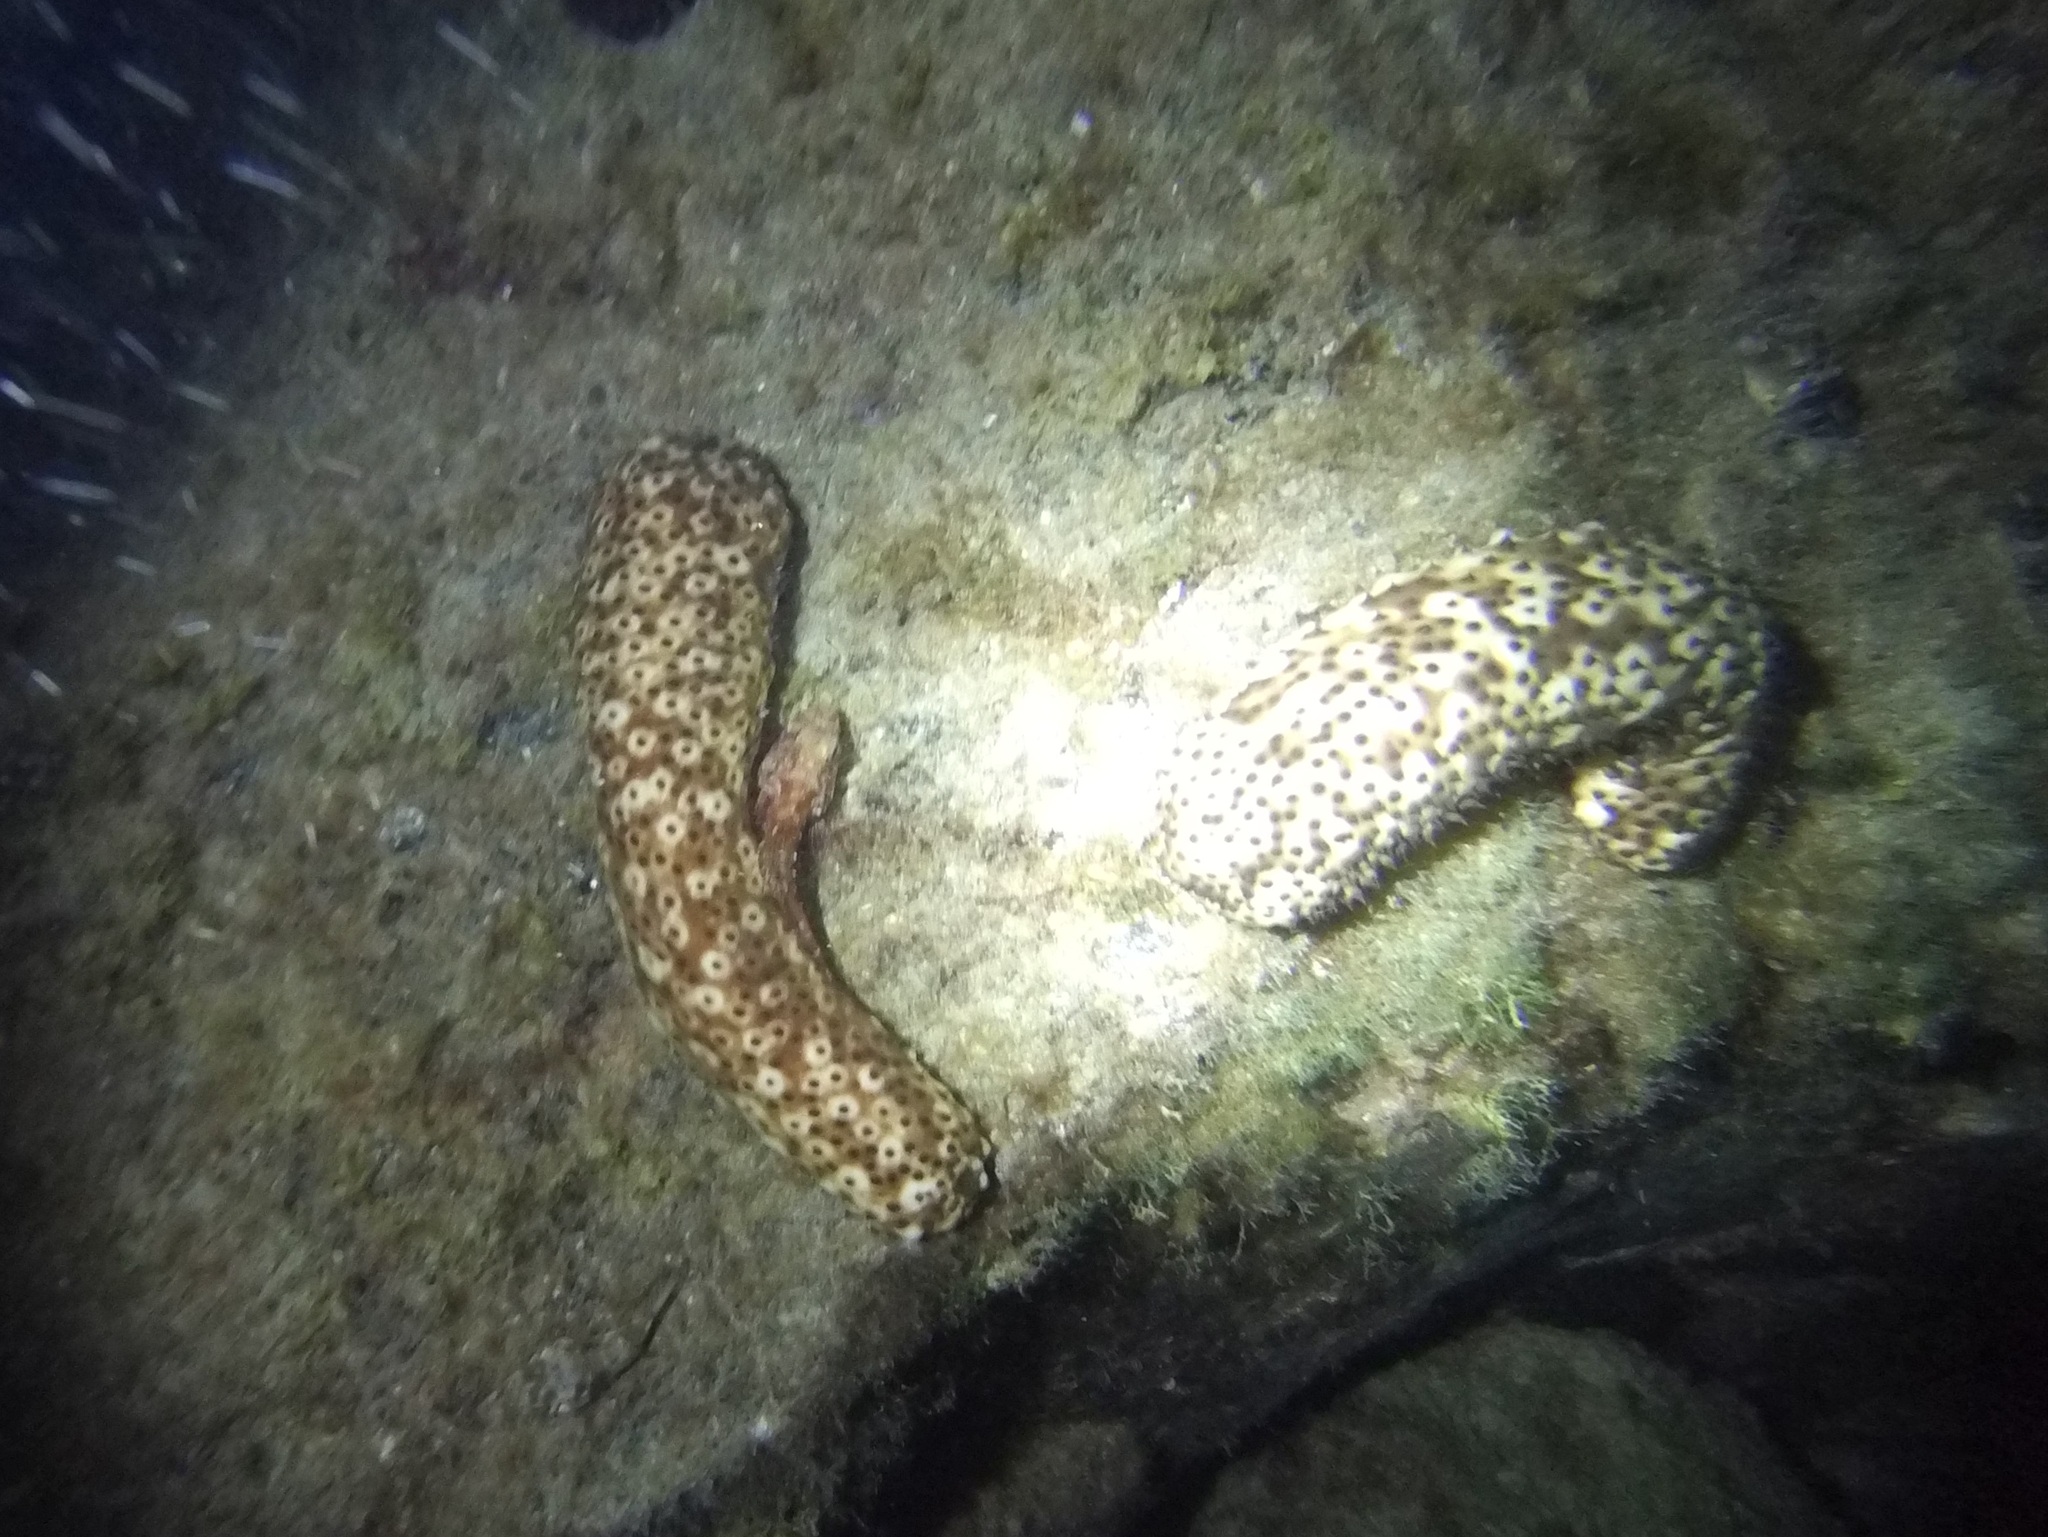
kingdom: Animalia
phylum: Echinodermata
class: Holothuroidea
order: Holothuriida
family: Holothuriidae
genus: Holothuria
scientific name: Holothuria sanctori
